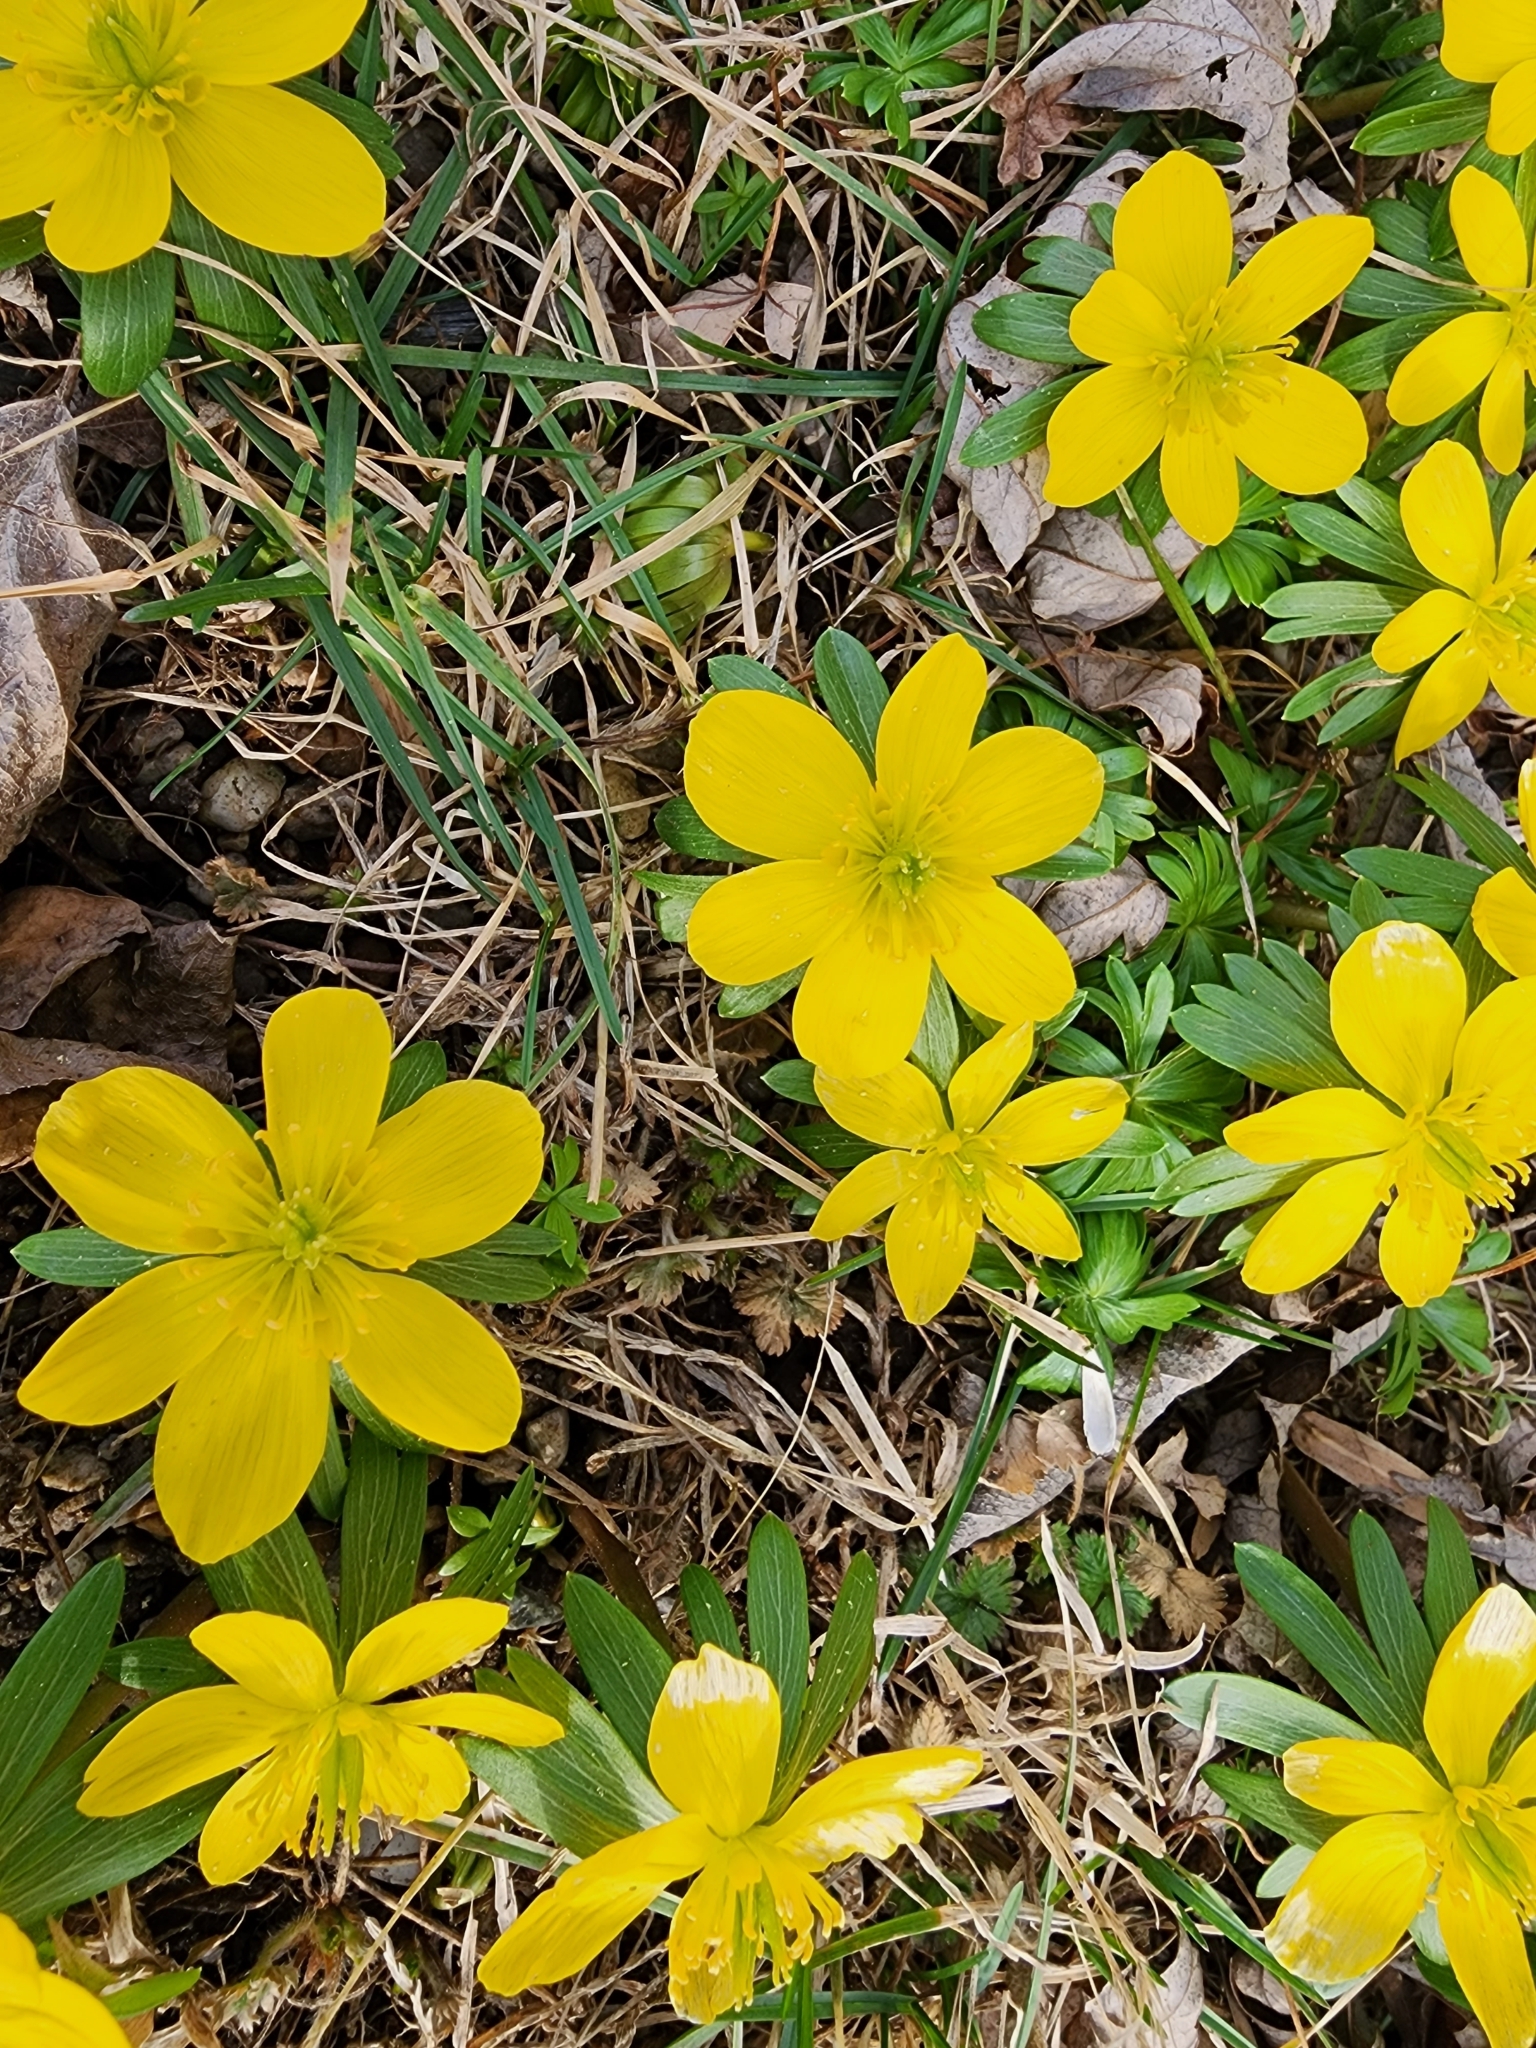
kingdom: Plantae
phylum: Tracheophyta
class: Magnoliopsida
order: Ranunculales
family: Ranunculaceae
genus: Eranthis
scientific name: Eranthis hyemalis
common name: Winter aconite
